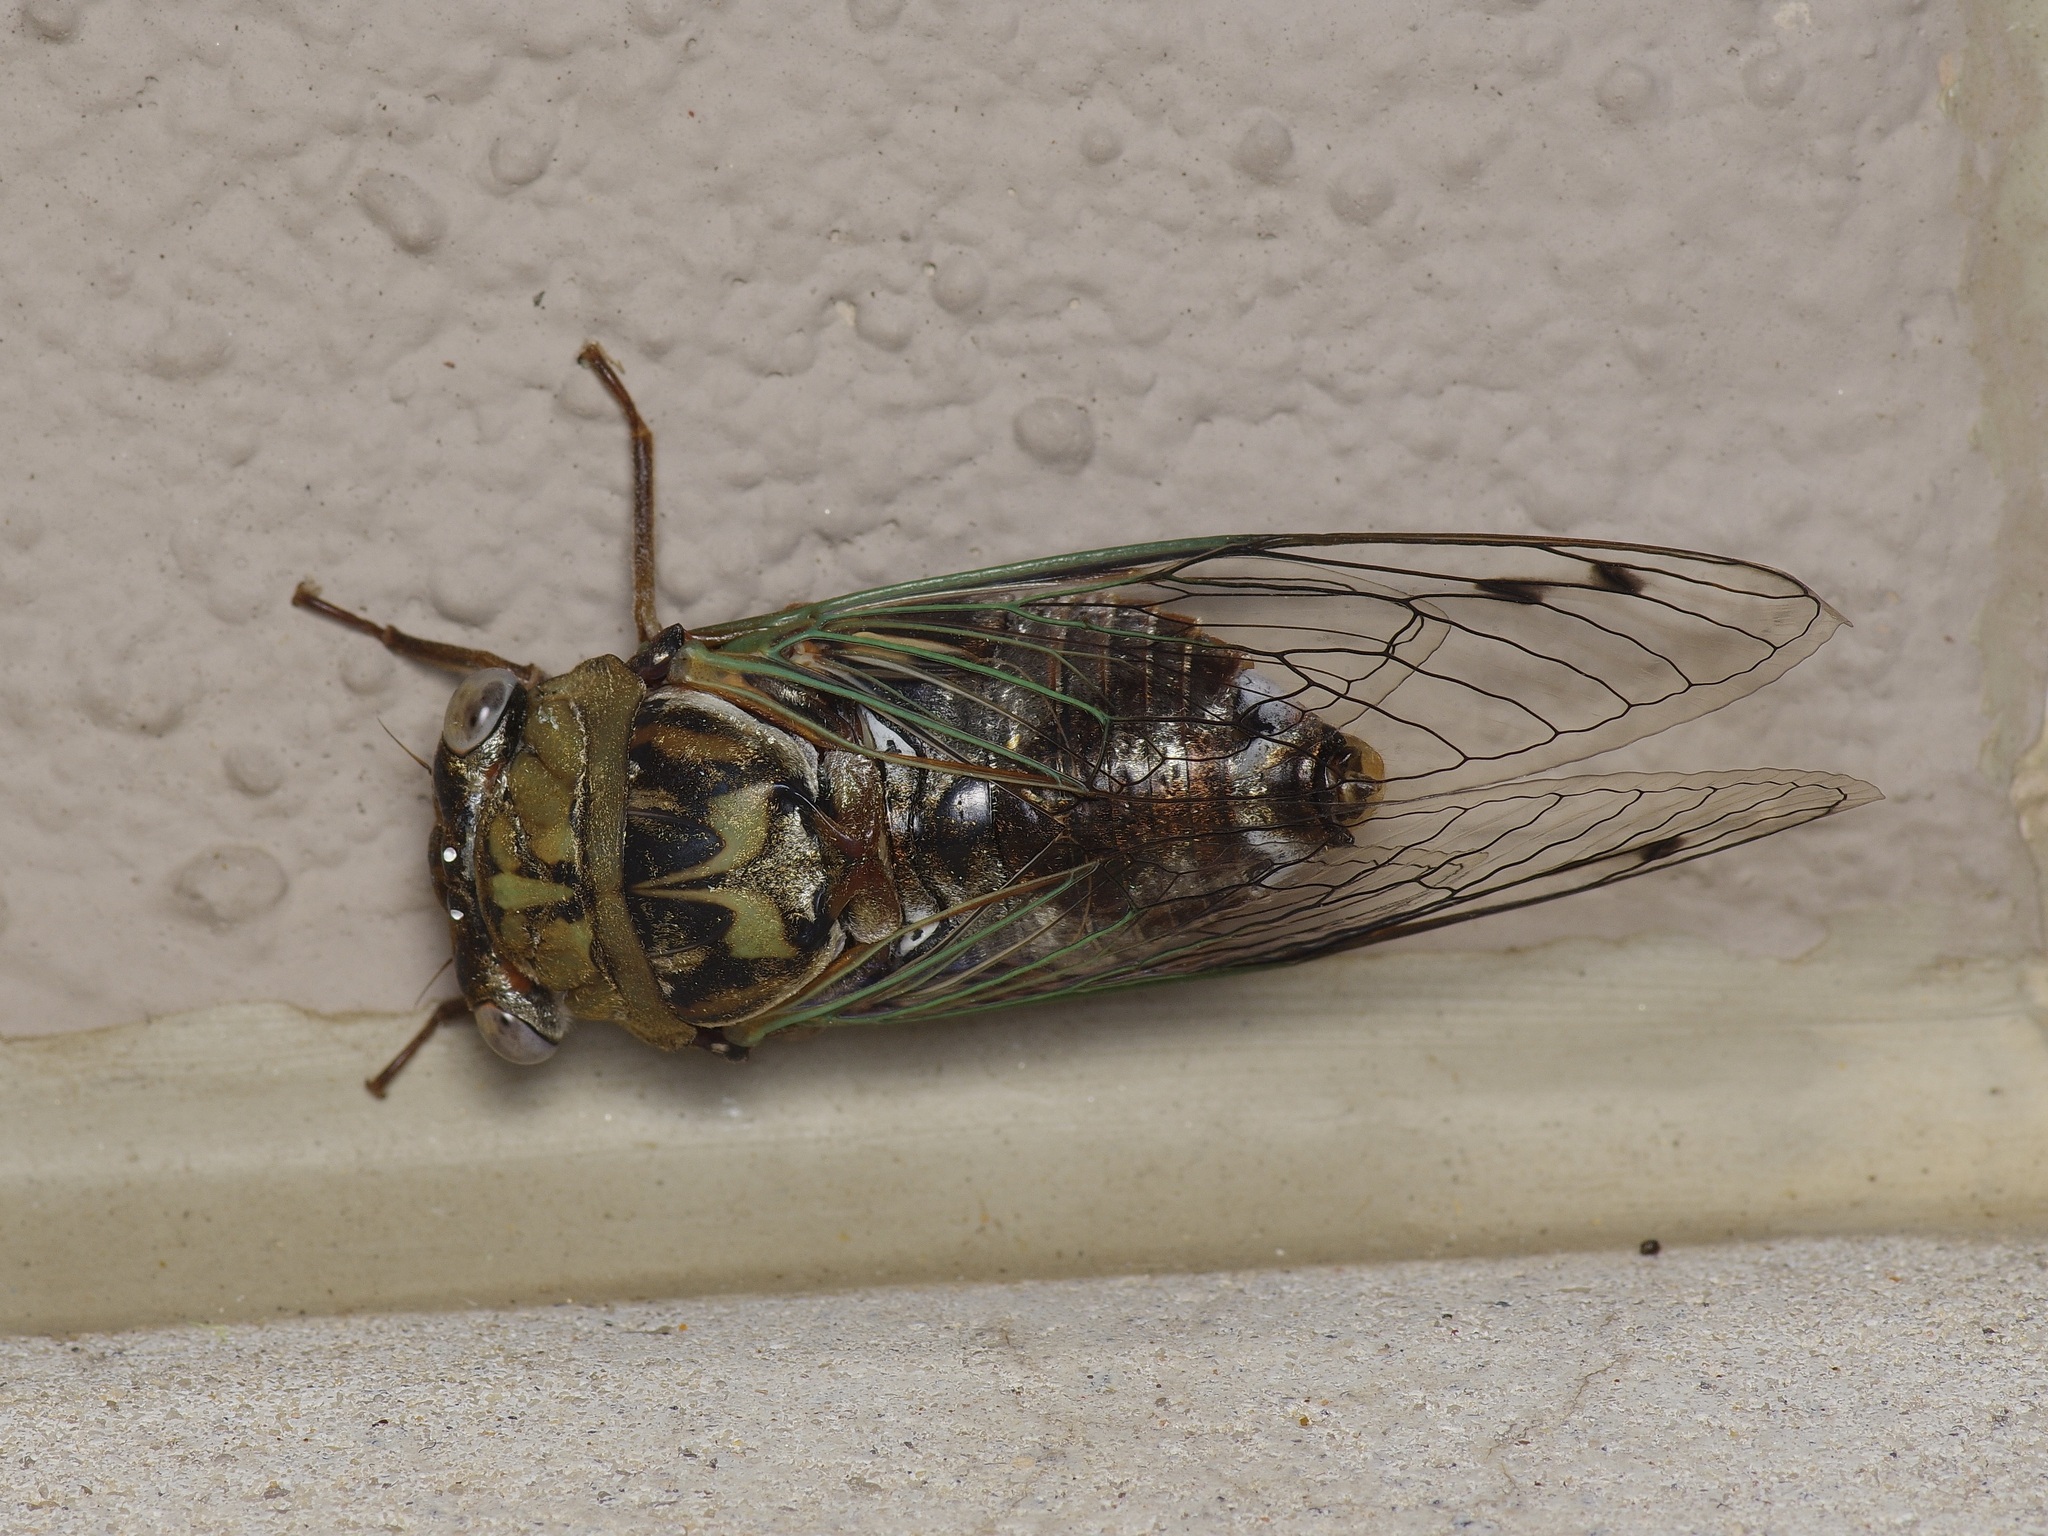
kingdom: Animalia
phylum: Arthropoda
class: Insecta
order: Hemiptera
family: Cicadidae
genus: Megatibicen
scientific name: Megatibicen resh
